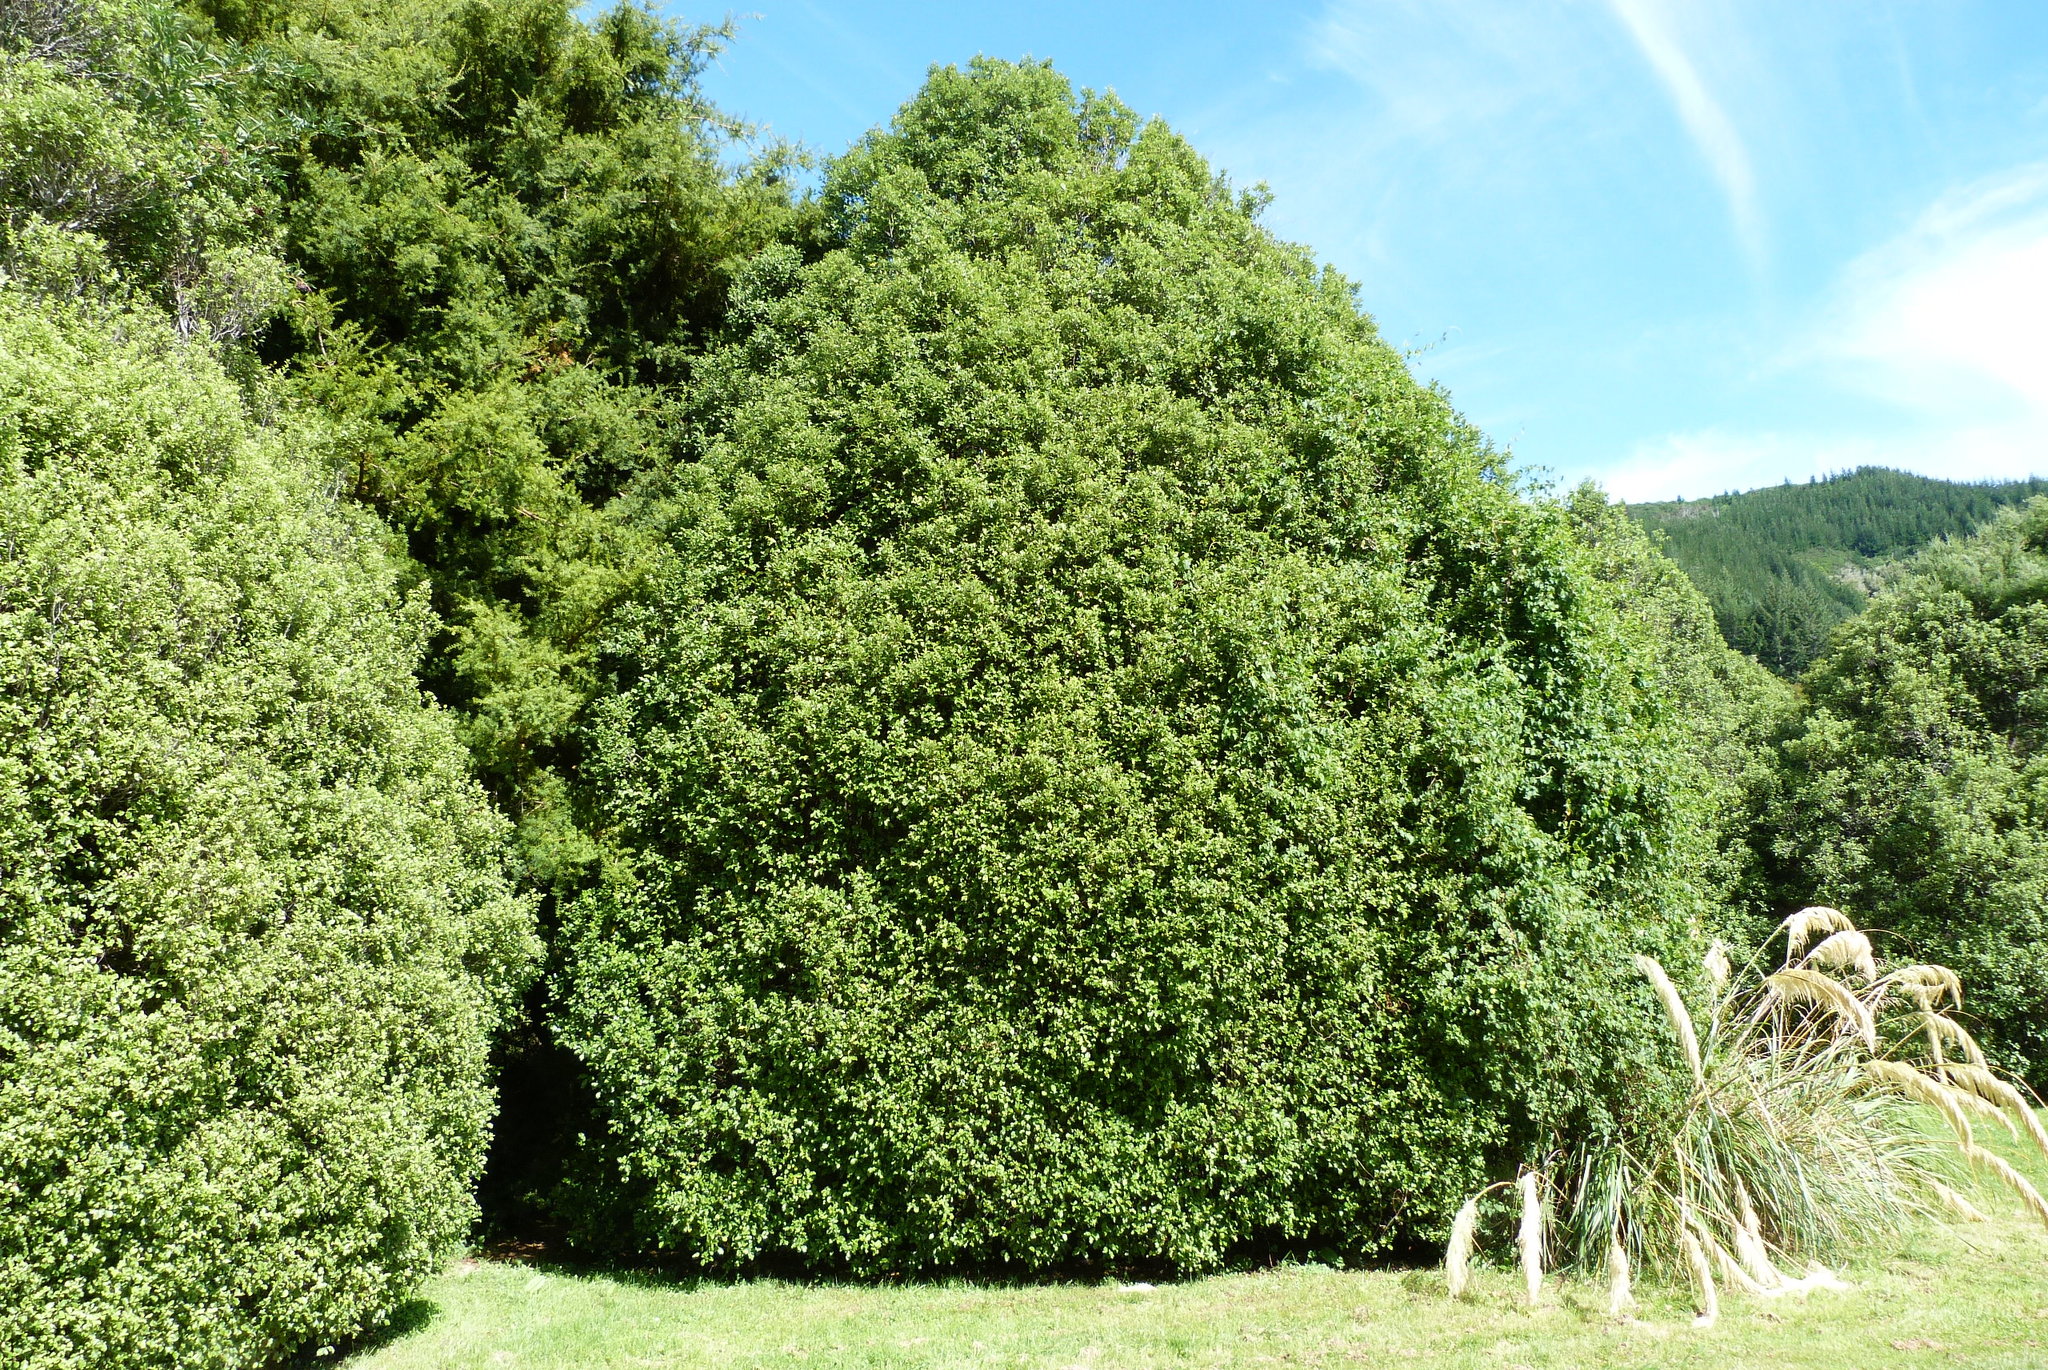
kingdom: Plantae
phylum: Tracheophyta
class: Magnoliopsida
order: Apiales
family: Pittosporaceae
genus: Pittosporum
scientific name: Pittosporum tenuifolium
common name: Kohuhu
